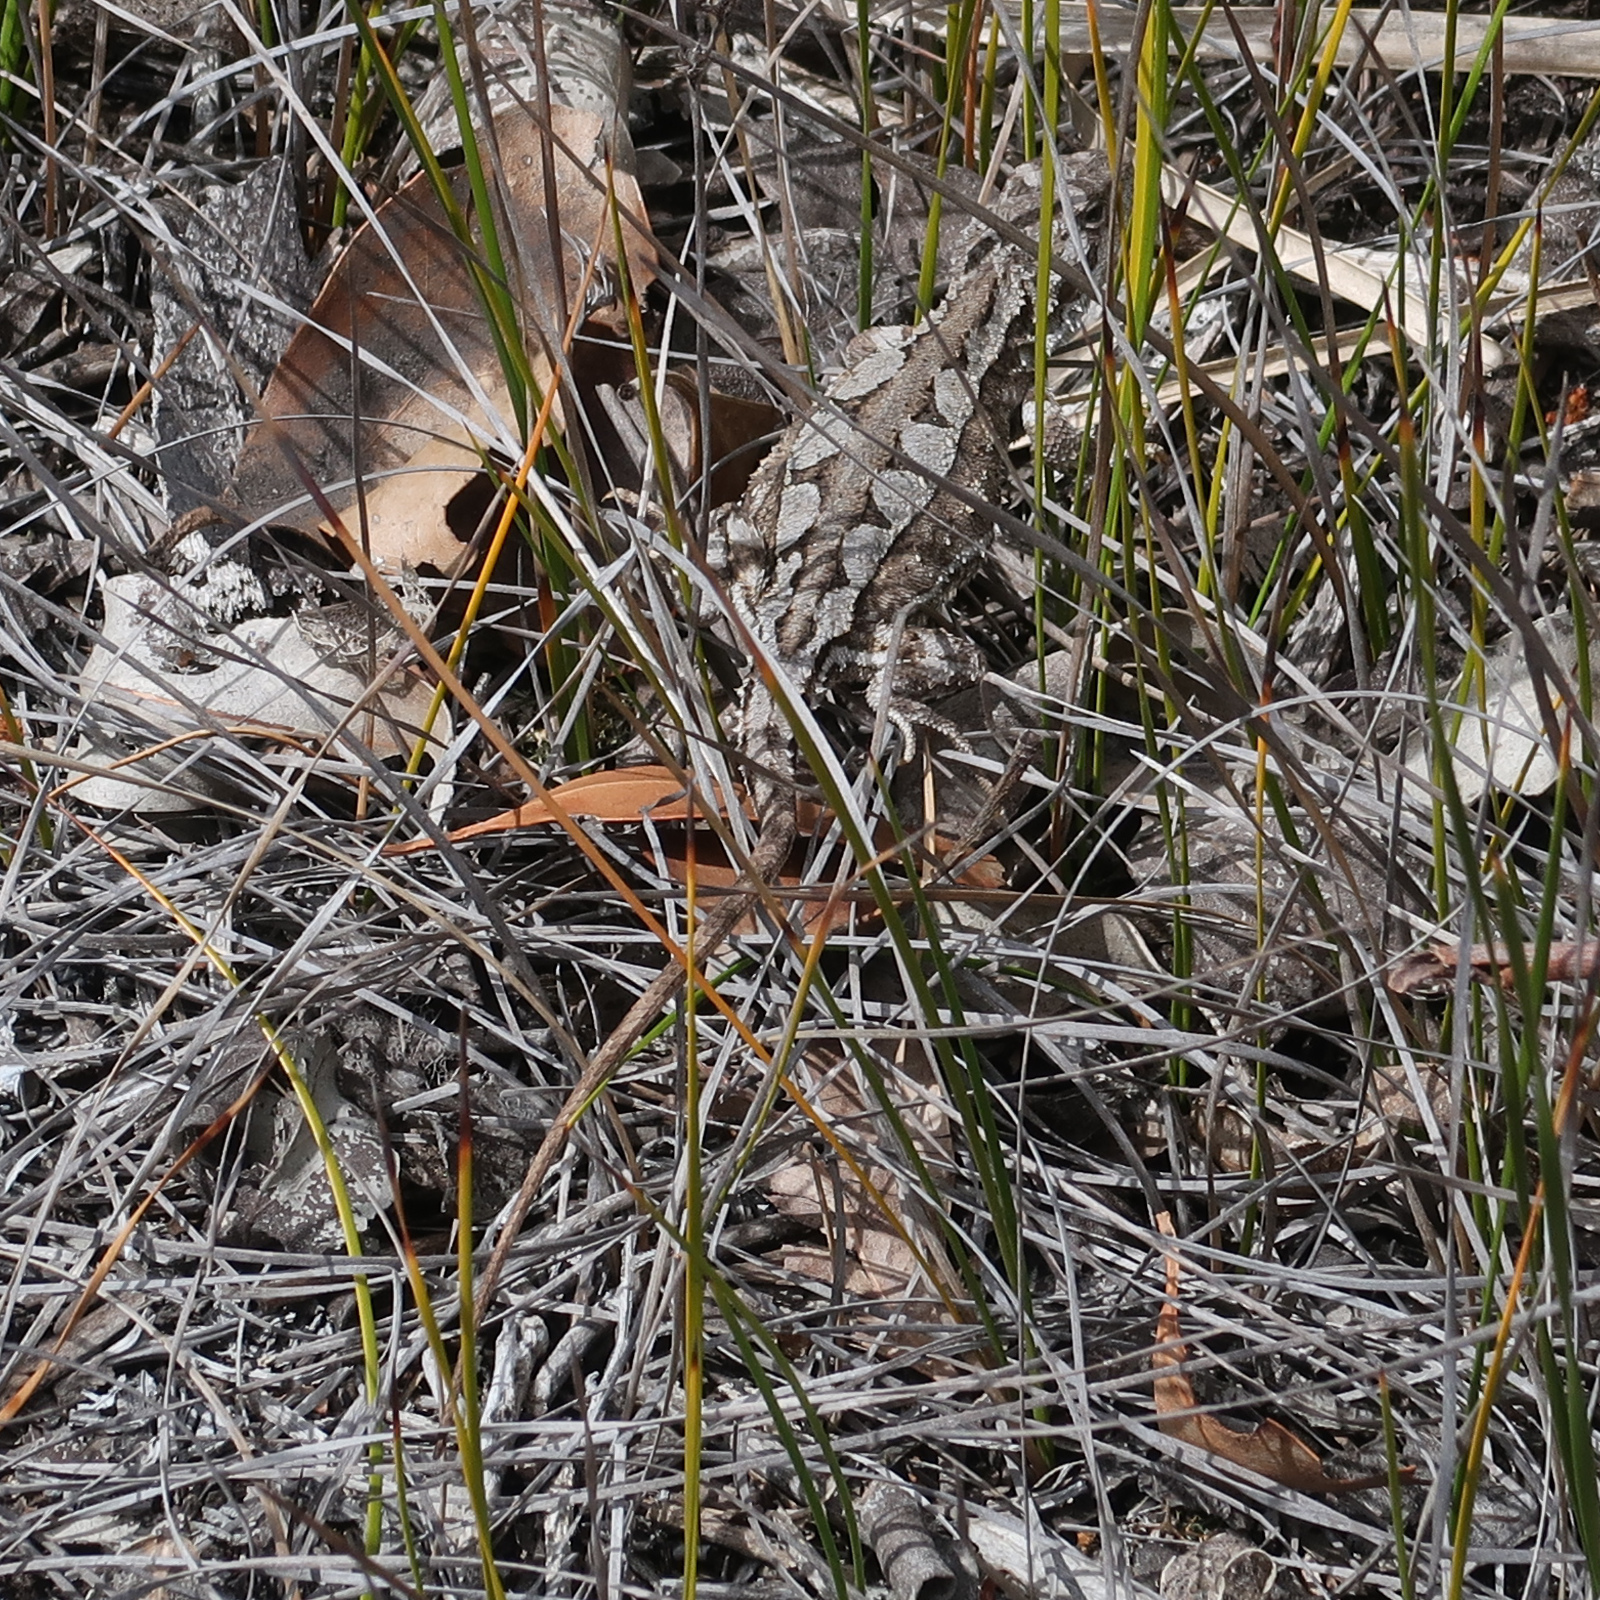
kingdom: Animalia
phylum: Chordata
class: Squamata
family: Agamidae
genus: Rankinia
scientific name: Rankinia diemensis
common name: Mountain dragon
